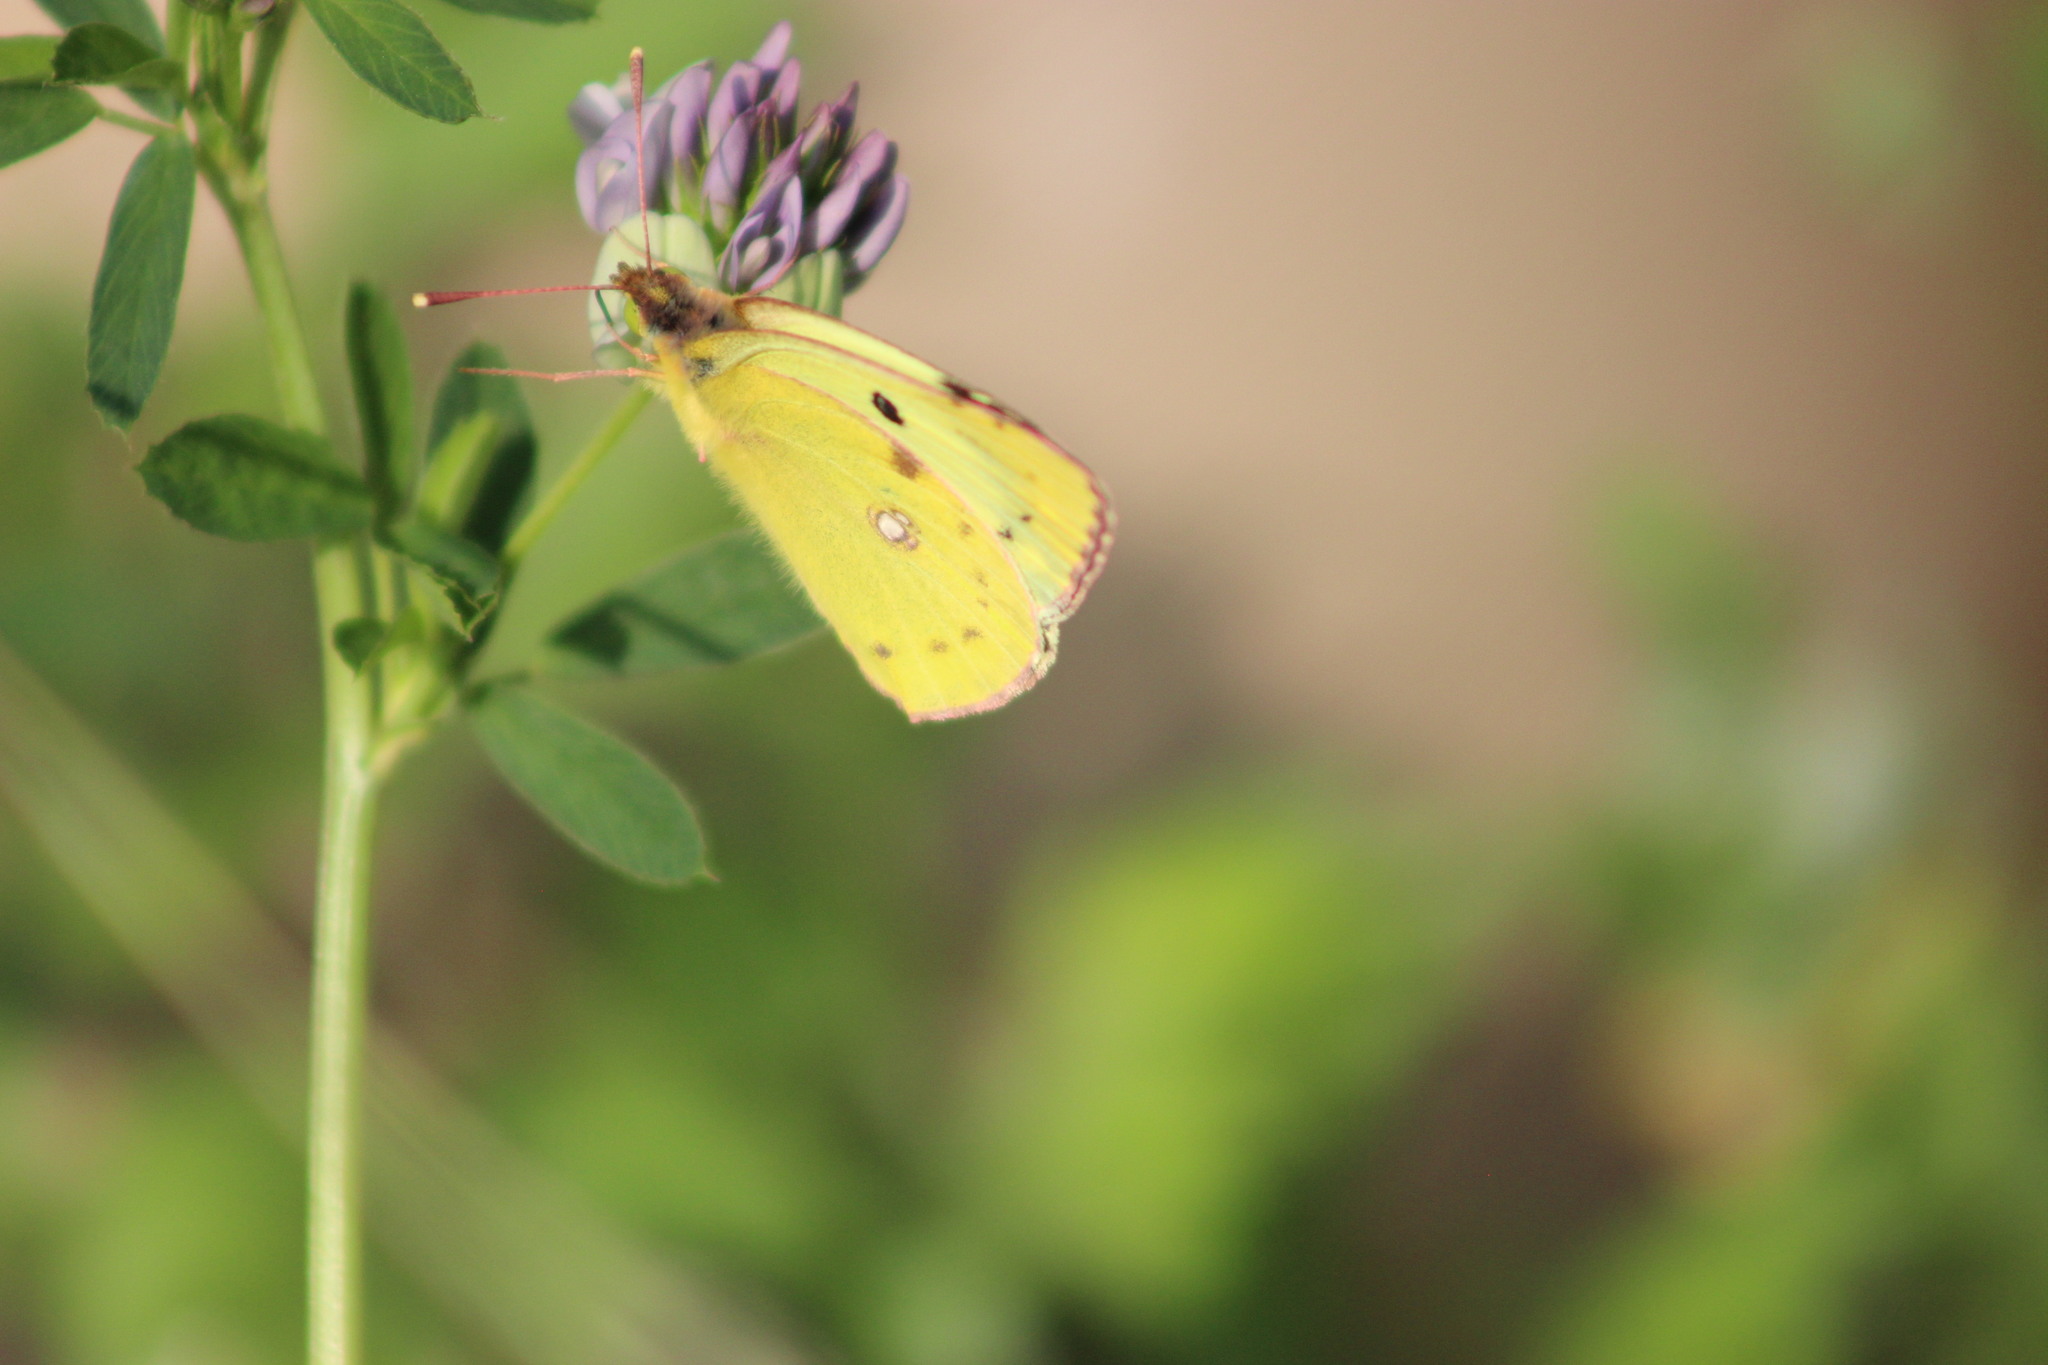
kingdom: Animalia
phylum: Arthropoda
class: Insecta
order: Lepidoptera
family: Pieridae
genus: Colias
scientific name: Colias hyale
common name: Pale clouded yellow
